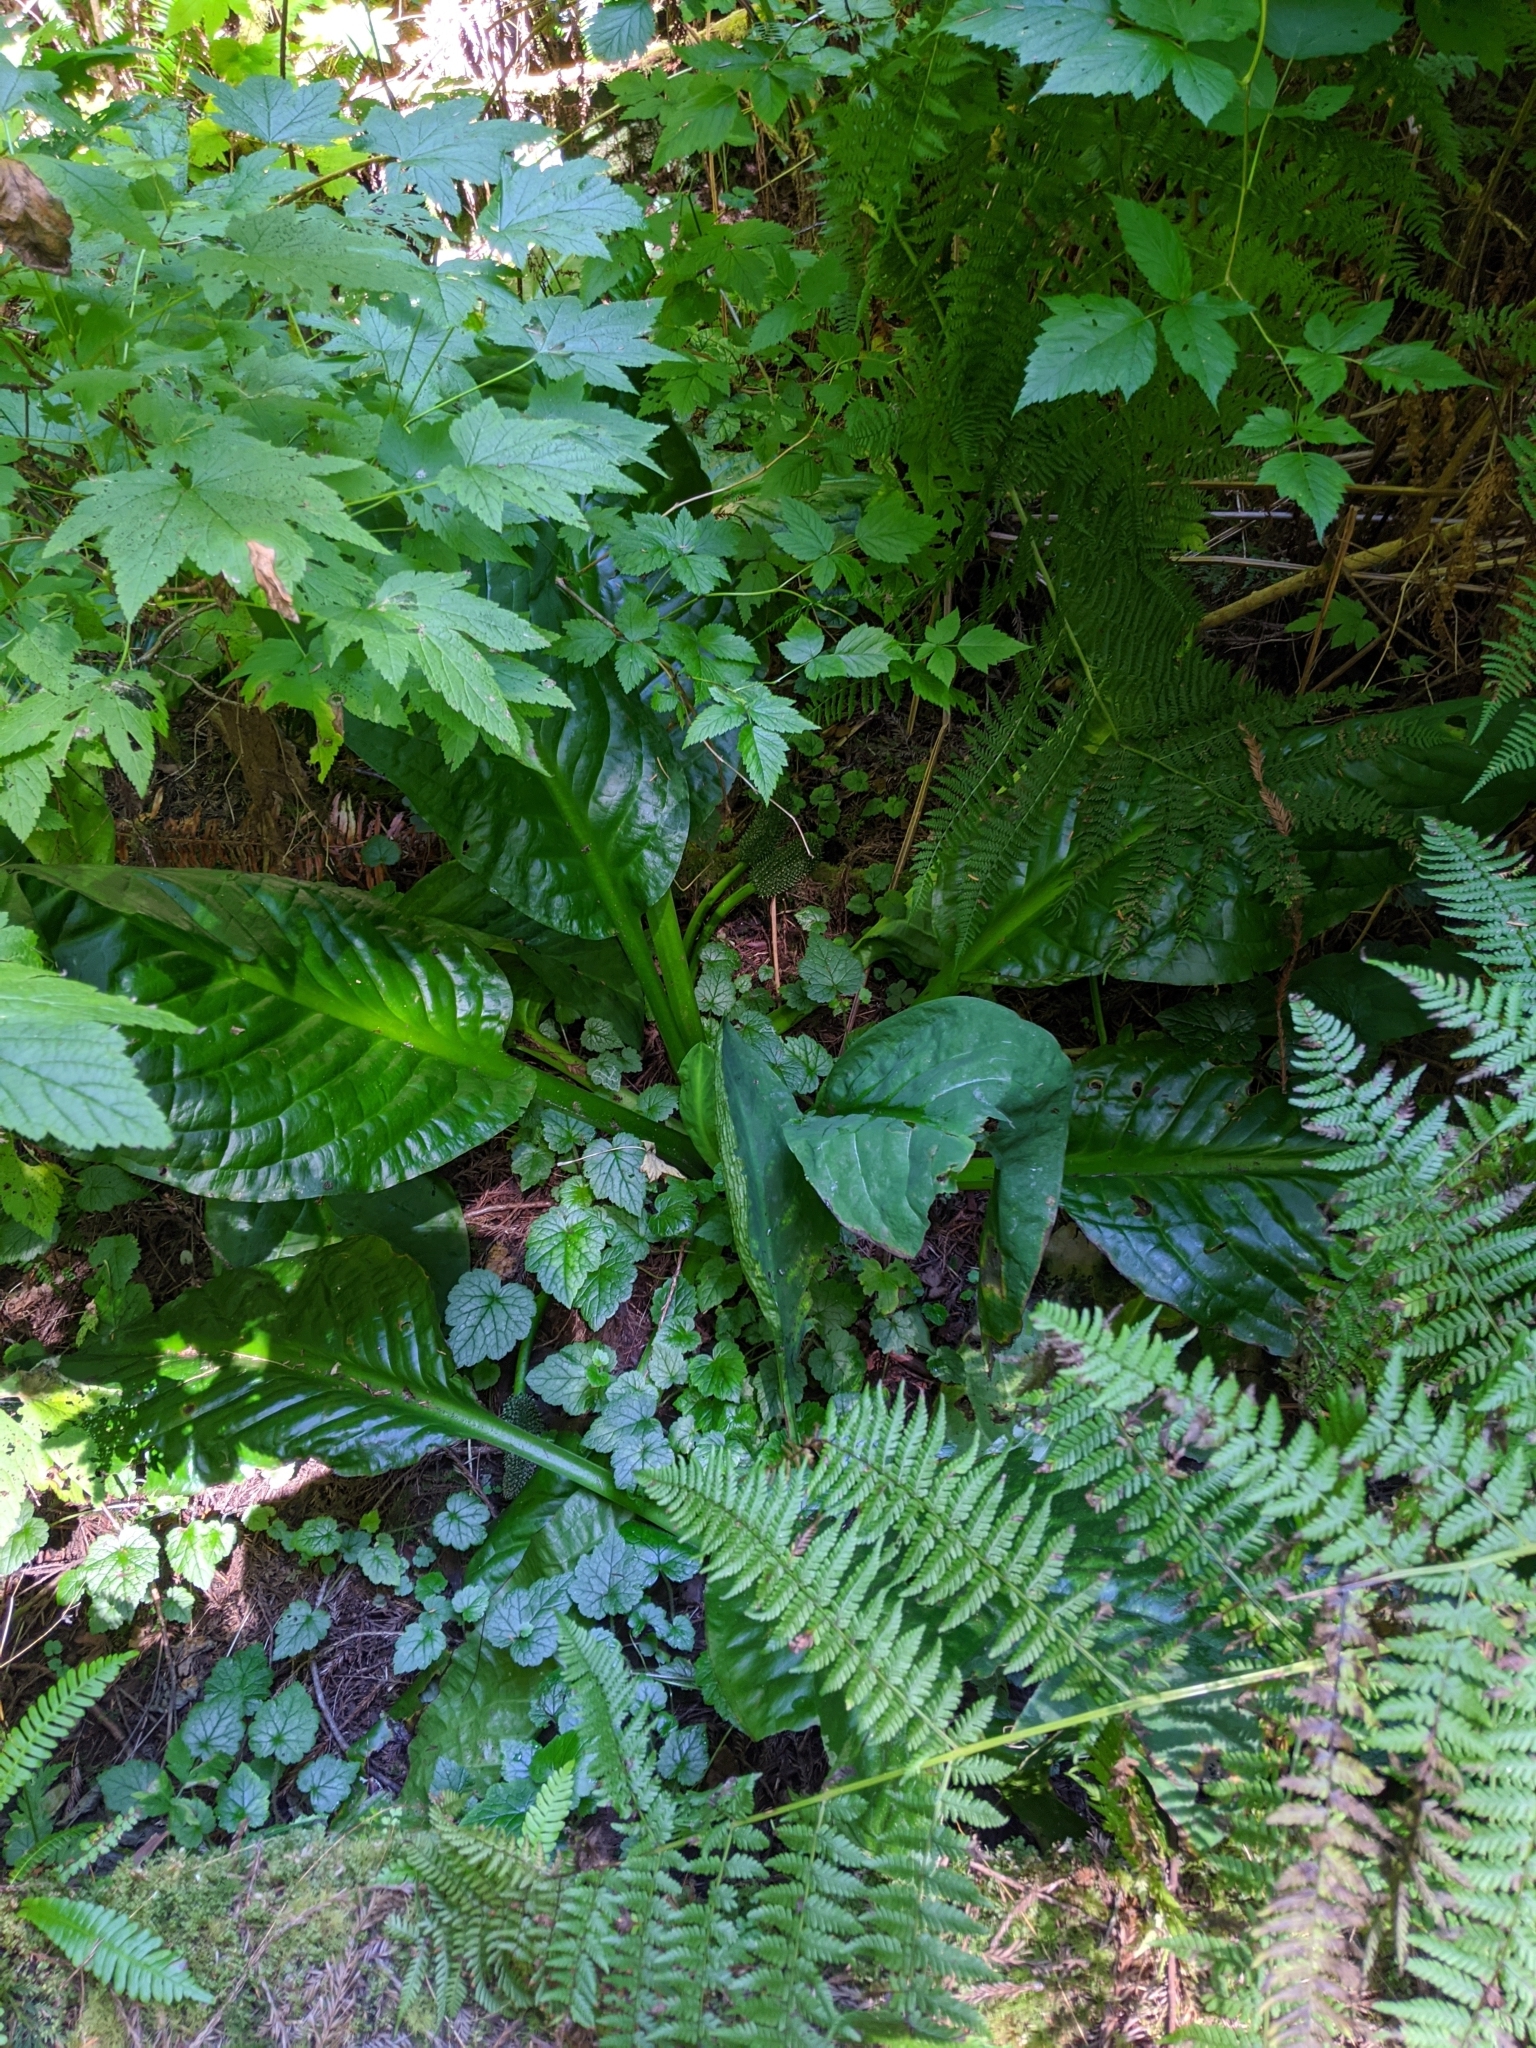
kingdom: Plantae
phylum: Tracheophyta
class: Liliopsida
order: Alismatales
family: Araceae
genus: Lysichiton
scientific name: Lysichiton americanus
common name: American skunk cabbage
